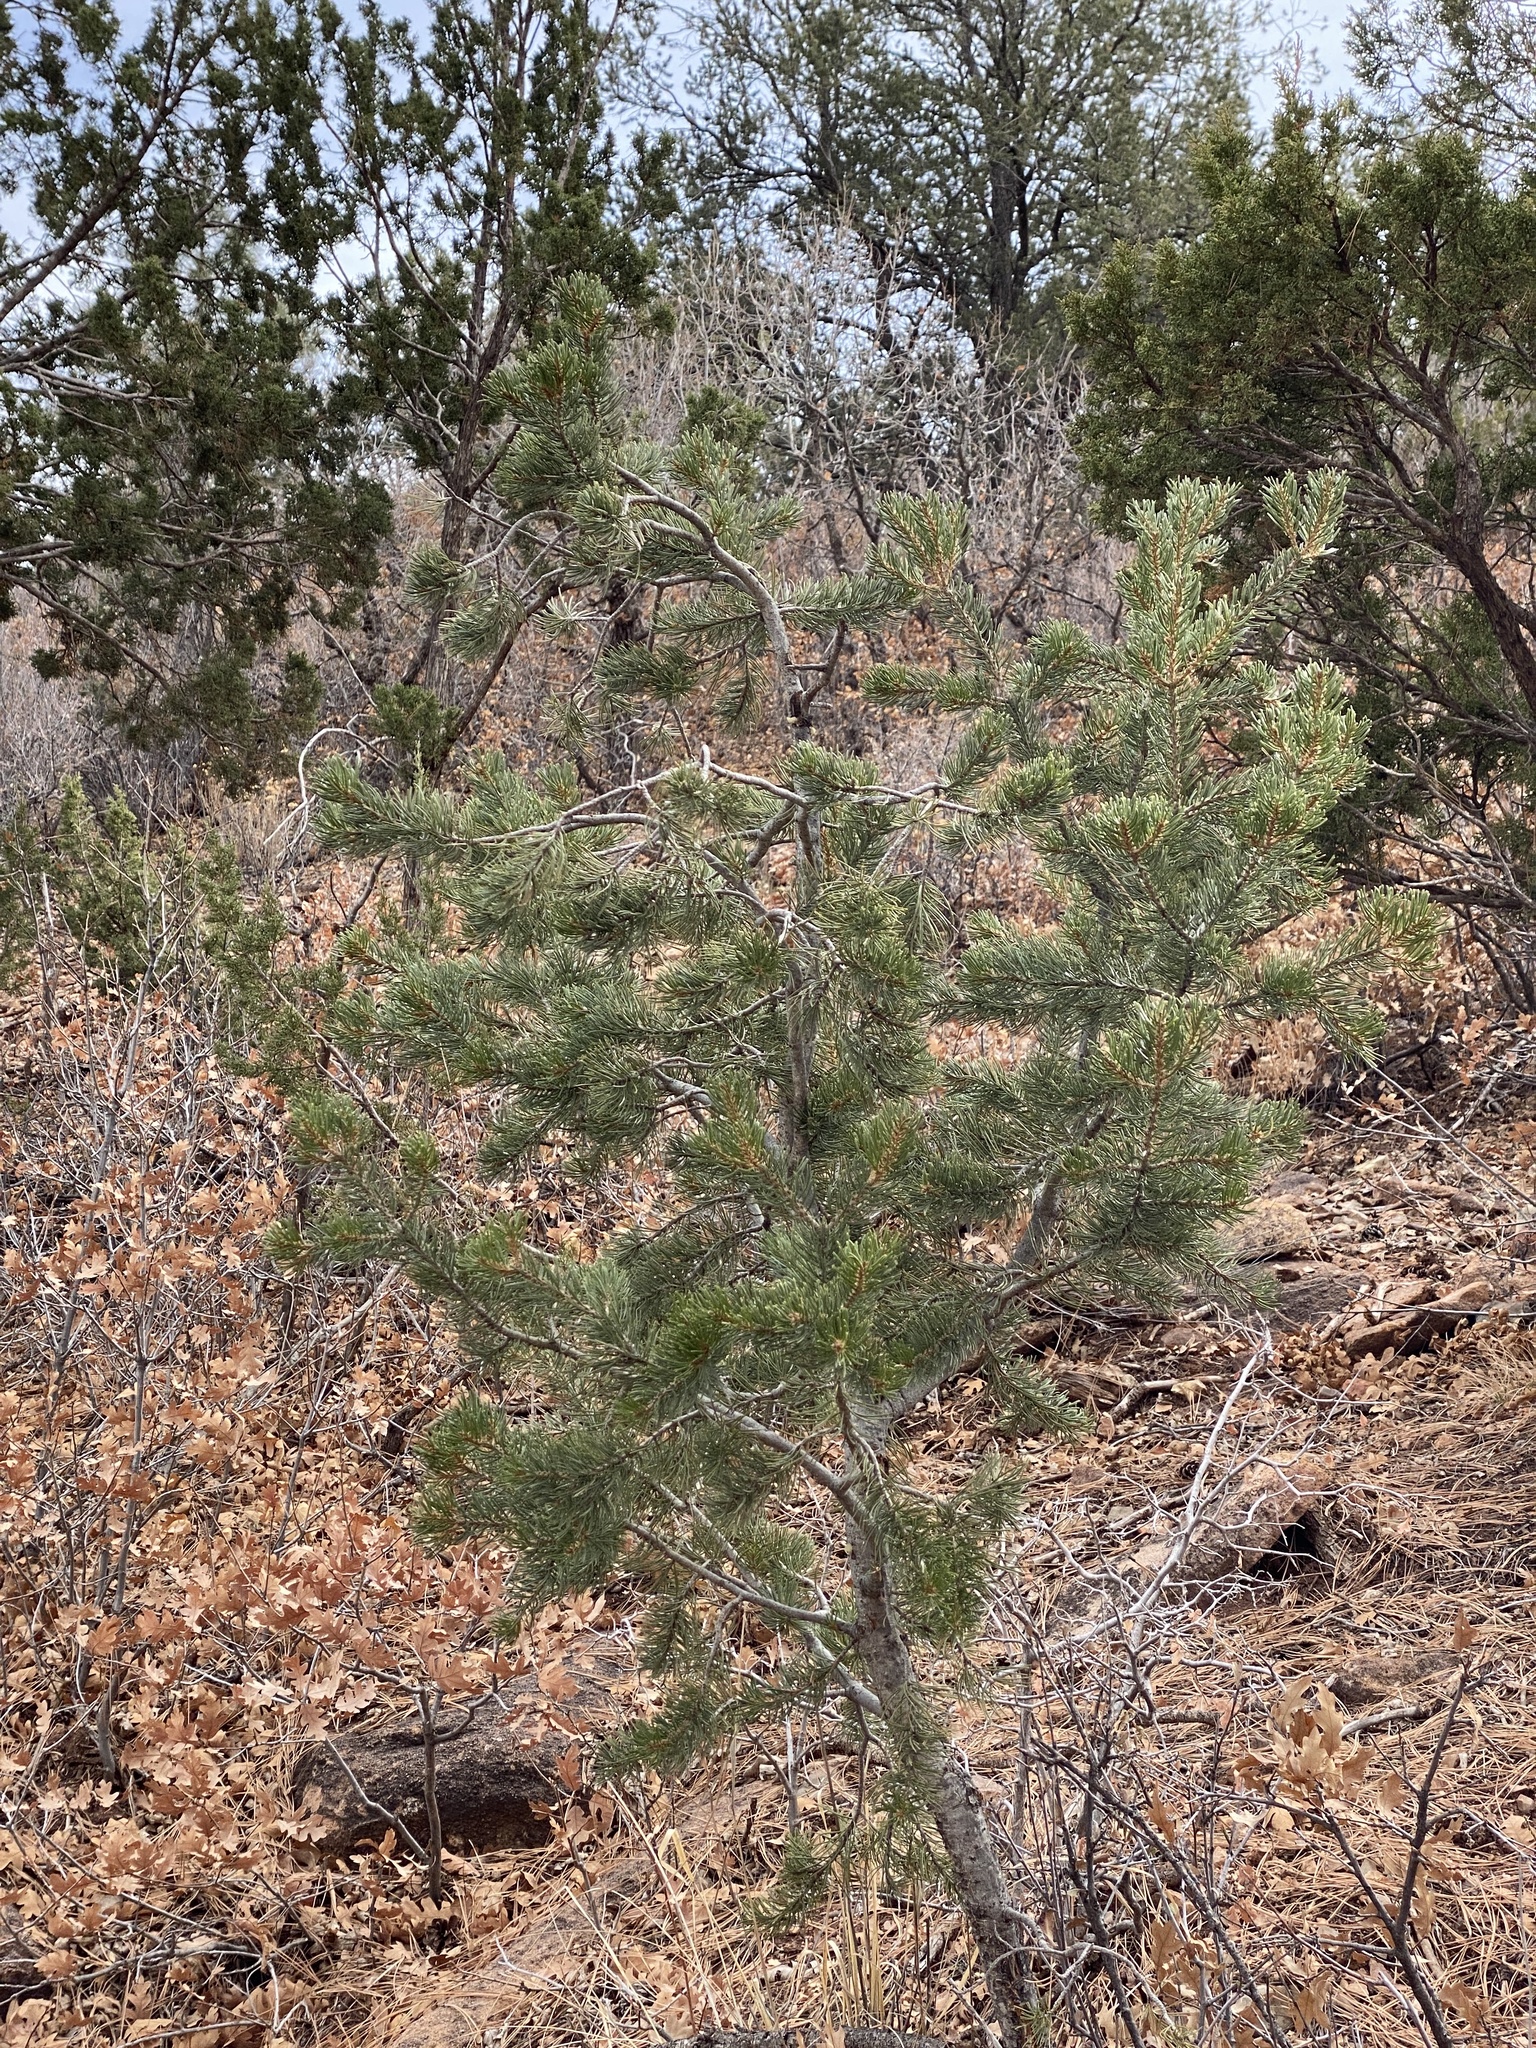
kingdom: Plantae
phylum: Tracheophyta
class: Pinopsida
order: Pinales
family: Pinaceae
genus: Pinus
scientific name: Pinus edulis
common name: Colorado pinyon
